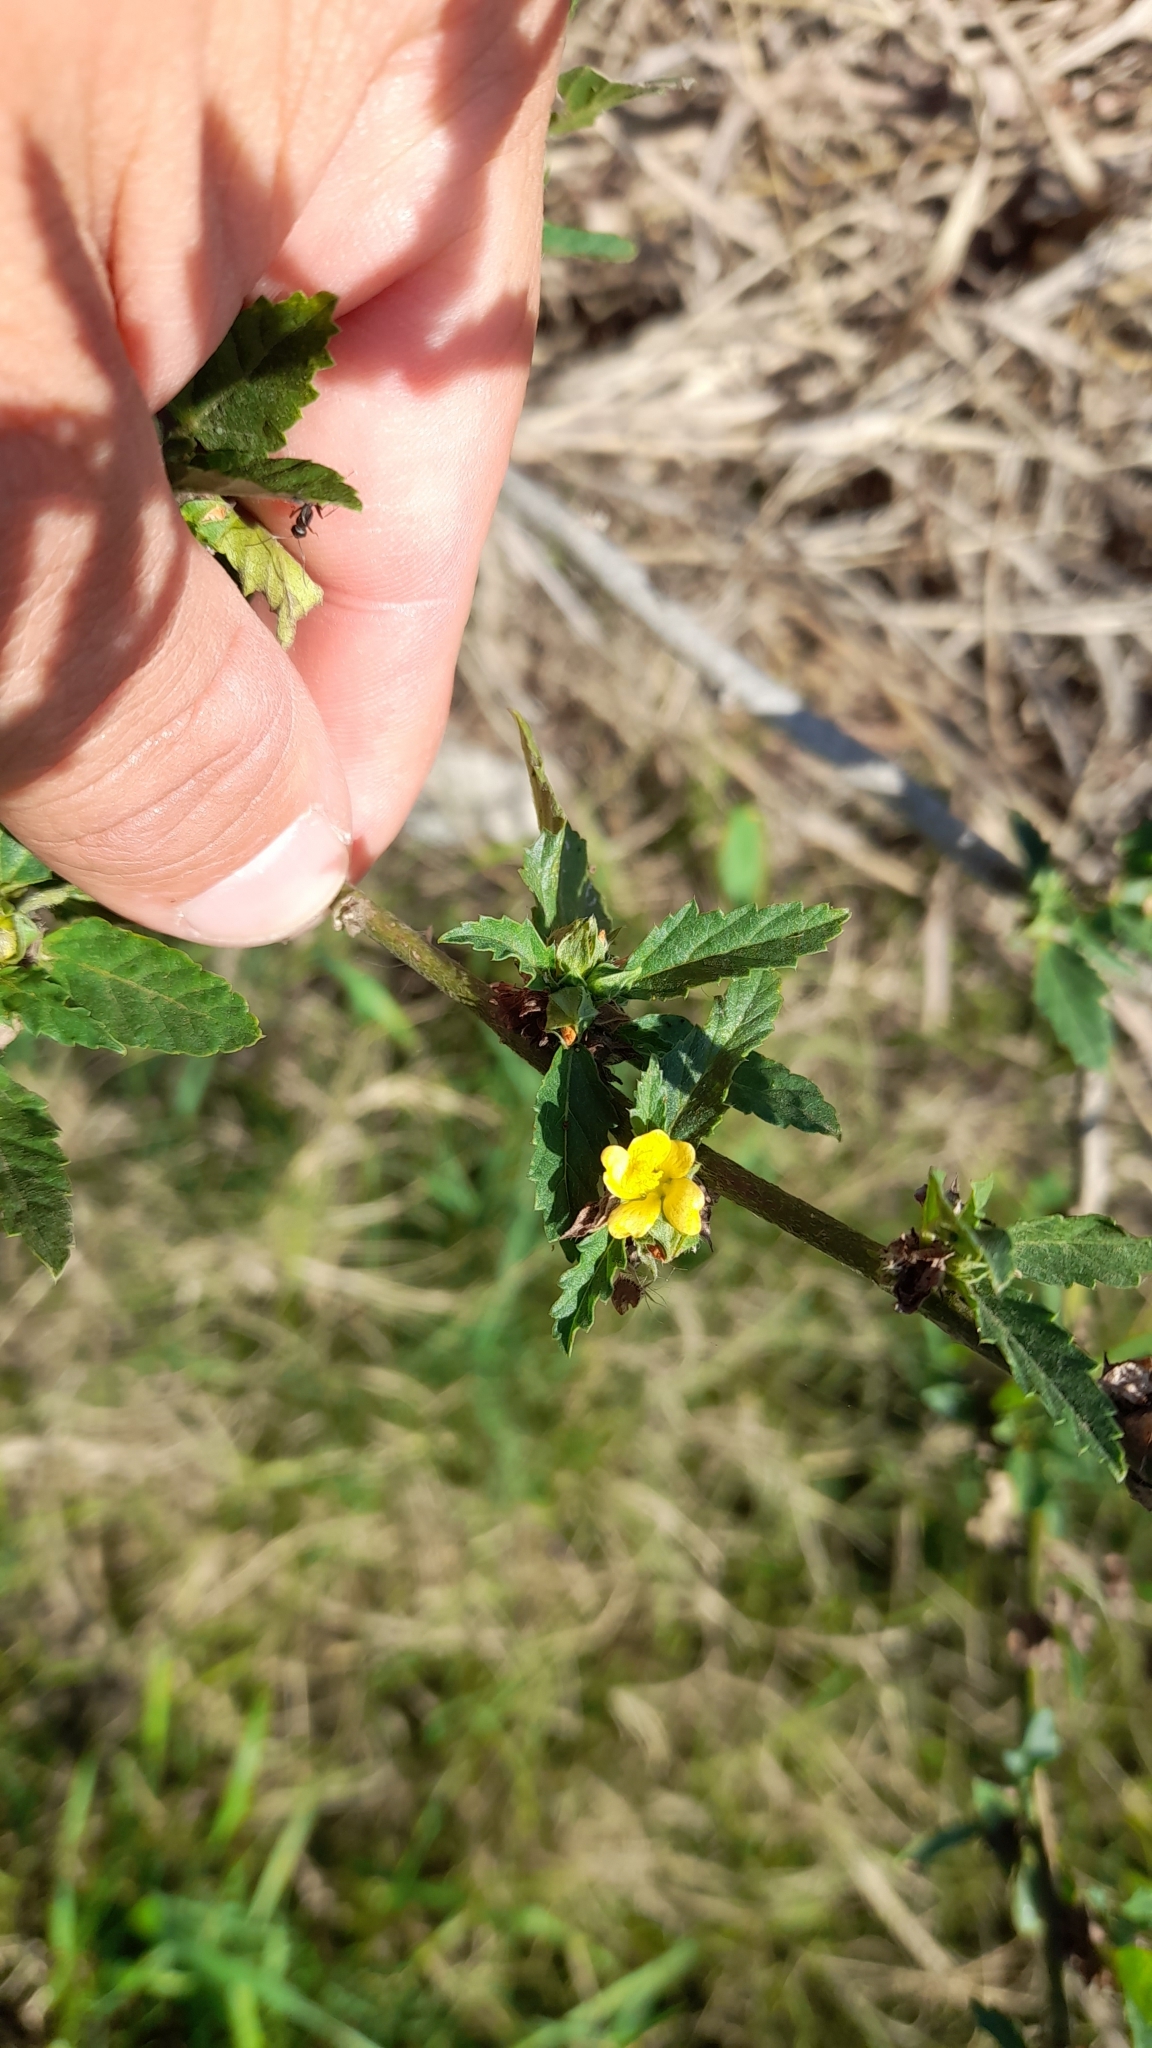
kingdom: Plantae
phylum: Tracheophyta
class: Magnoliopsida
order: Malvales
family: Malvaceae
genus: Malvastrum
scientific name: Malvastrum coromandelianum
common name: Threelobe false mallow
